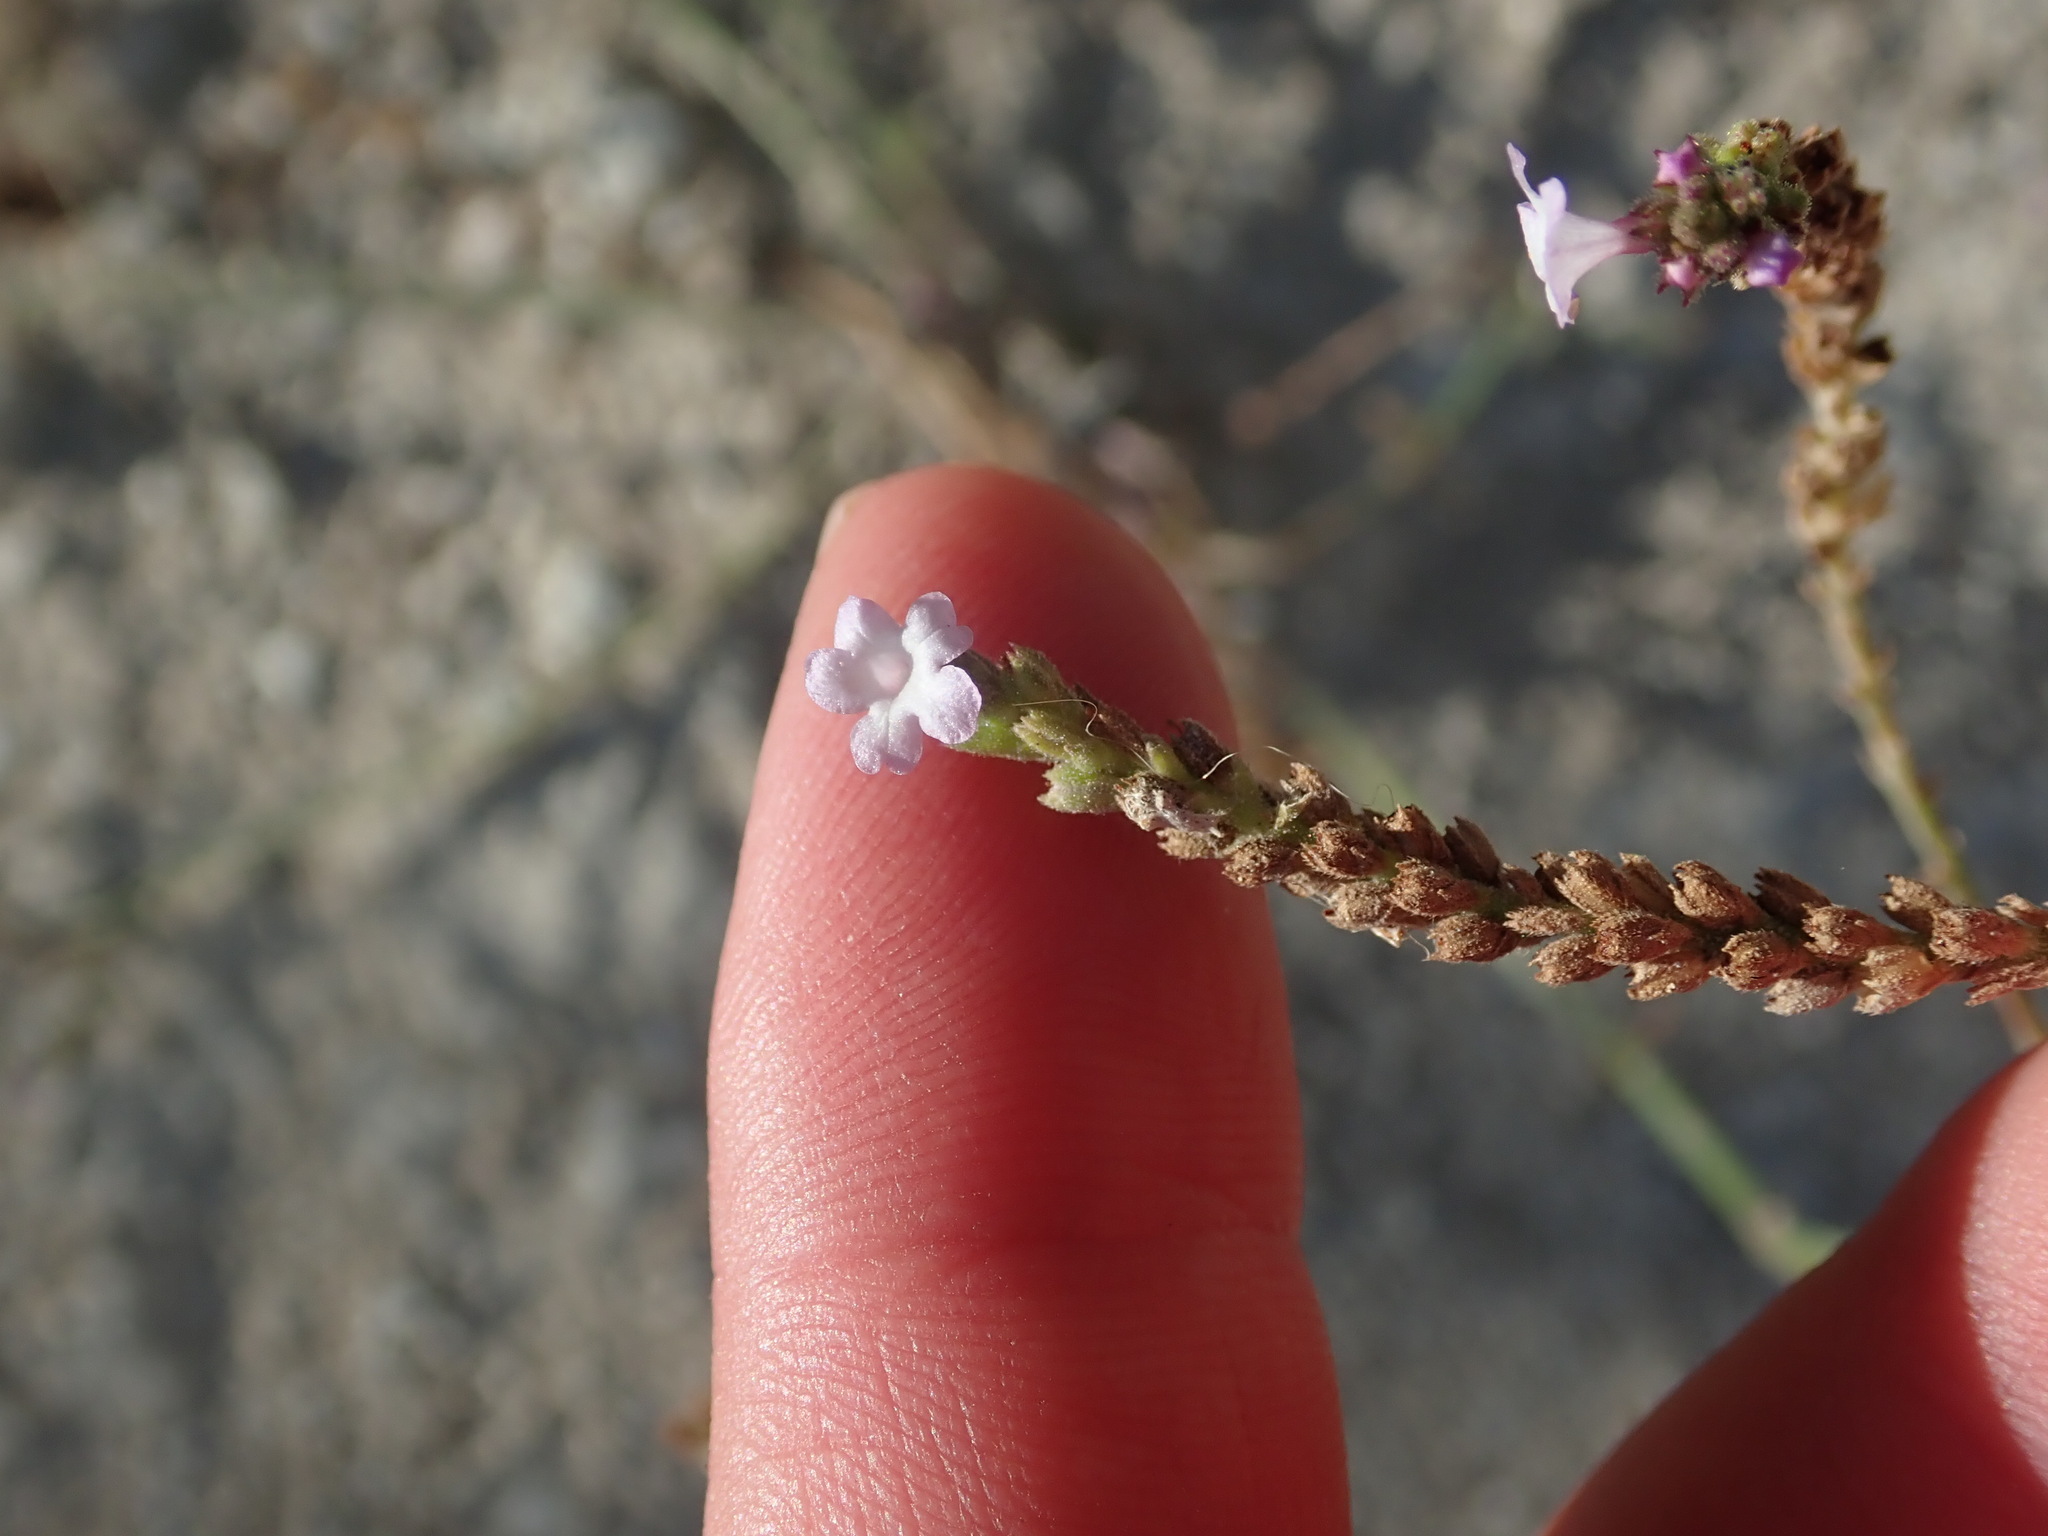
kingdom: Plantae
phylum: Tracheophyta
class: Magnoliopsida
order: Lamiales
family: Verbenaceae
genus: Verbena
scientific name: Verbena officinalis
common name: Vervain
